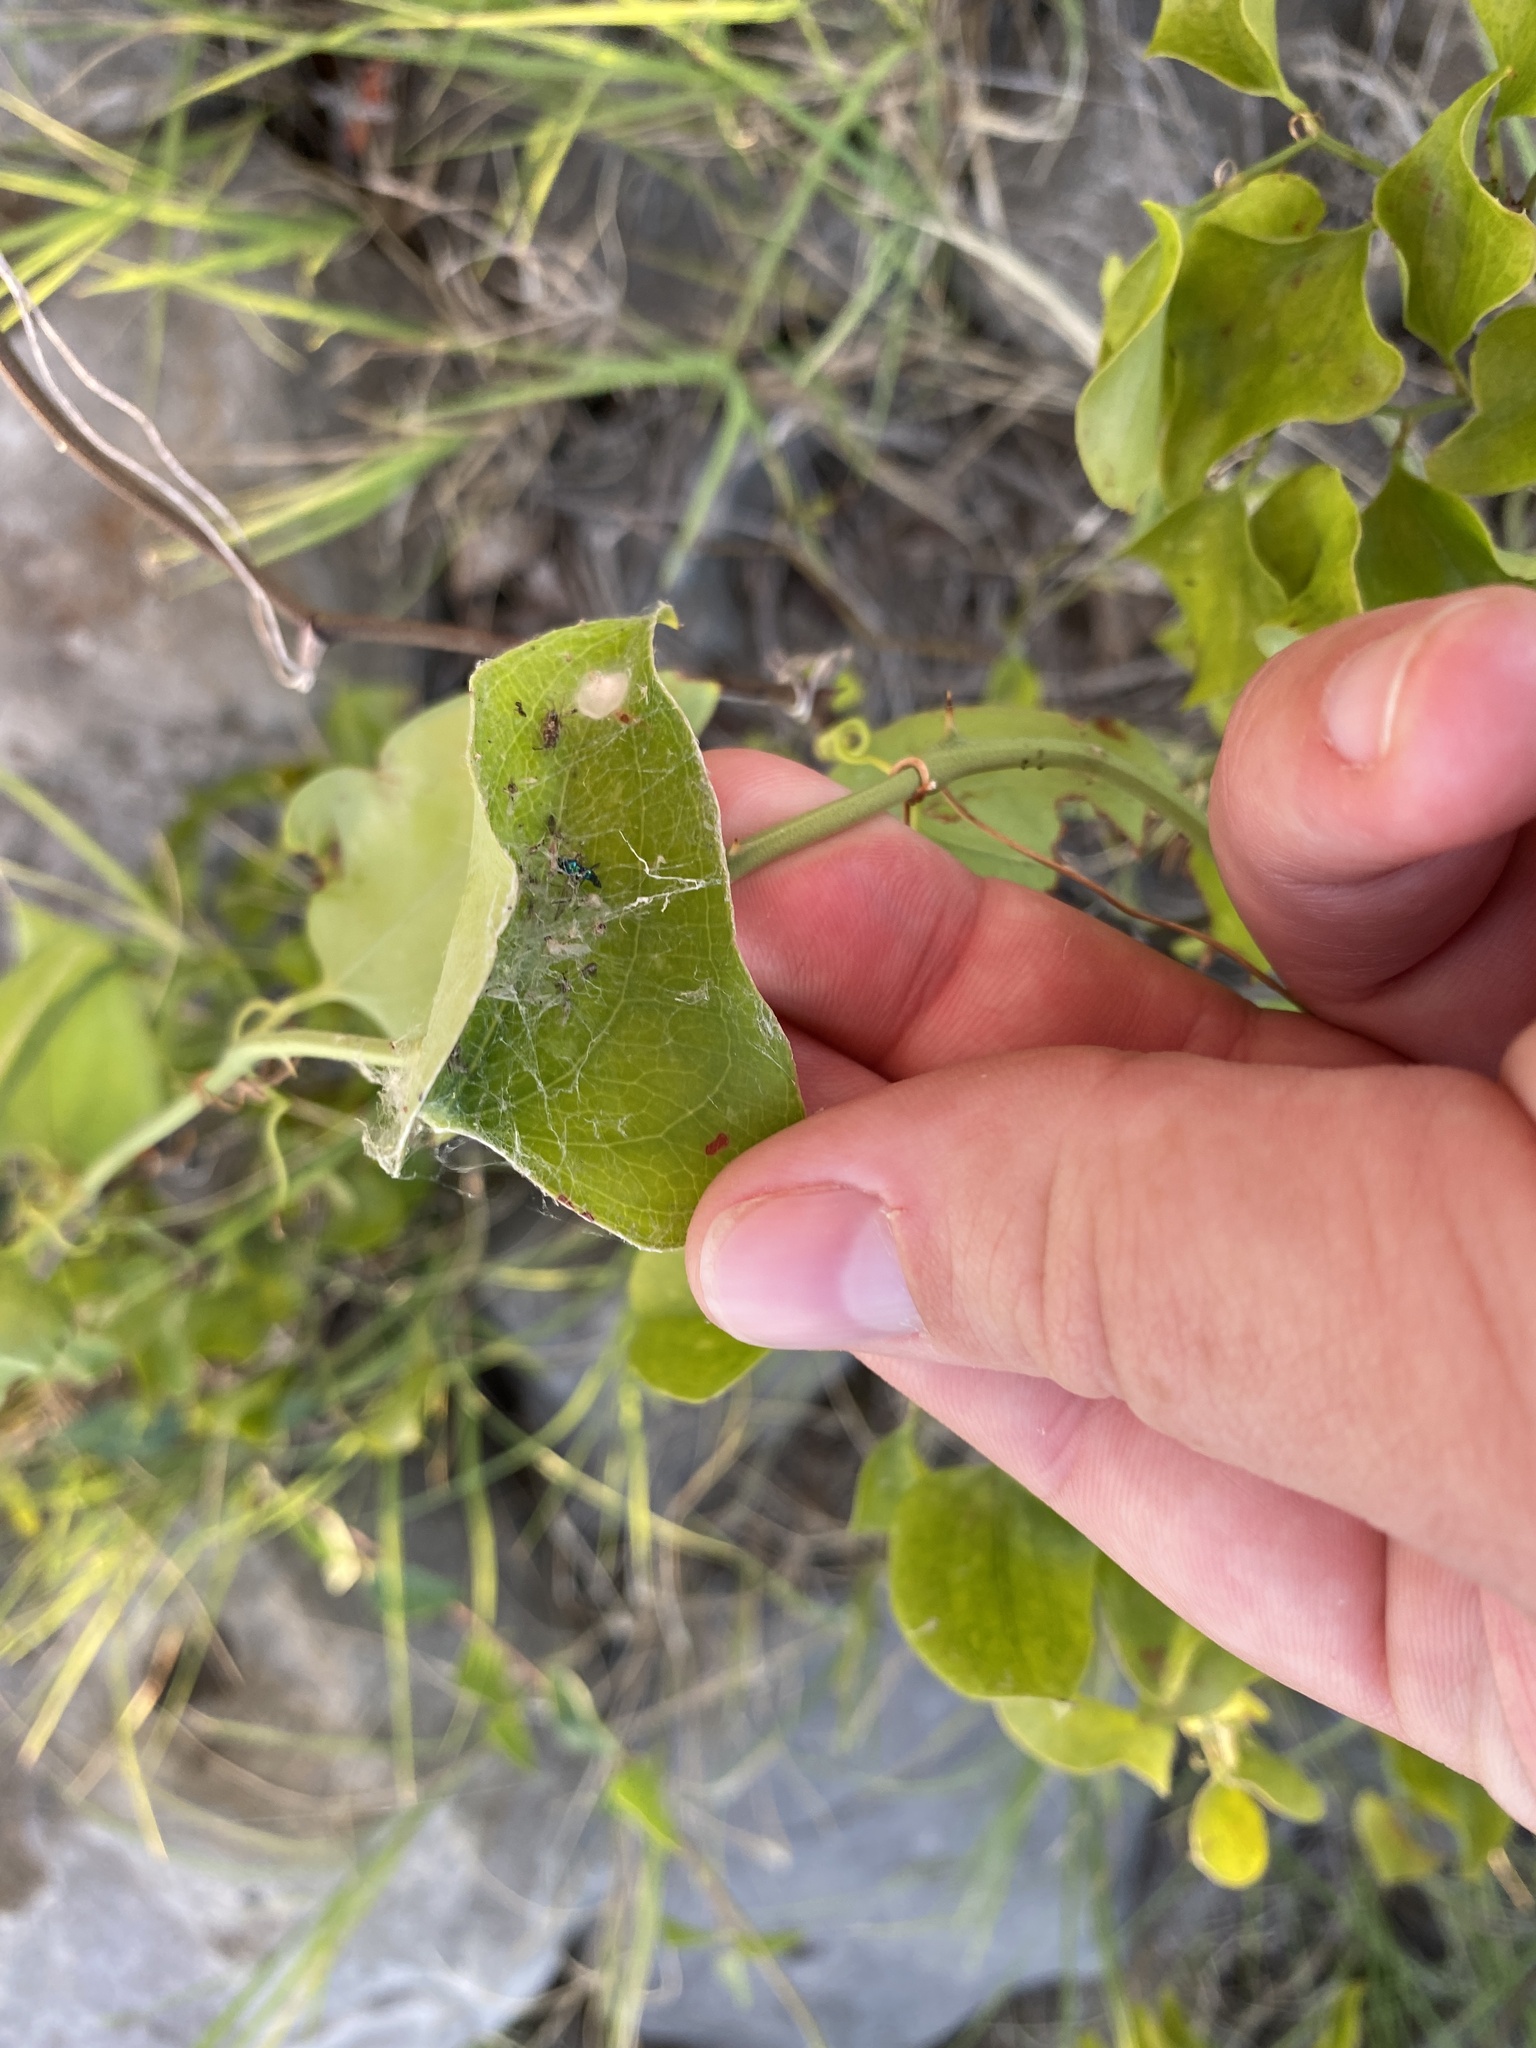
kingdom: Plantae
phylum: Tracheophyta
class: Liliopsida
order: Liliales
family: Smilacaceae
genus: Smilax
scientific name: Smilax bona-nox
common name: Catbrier
